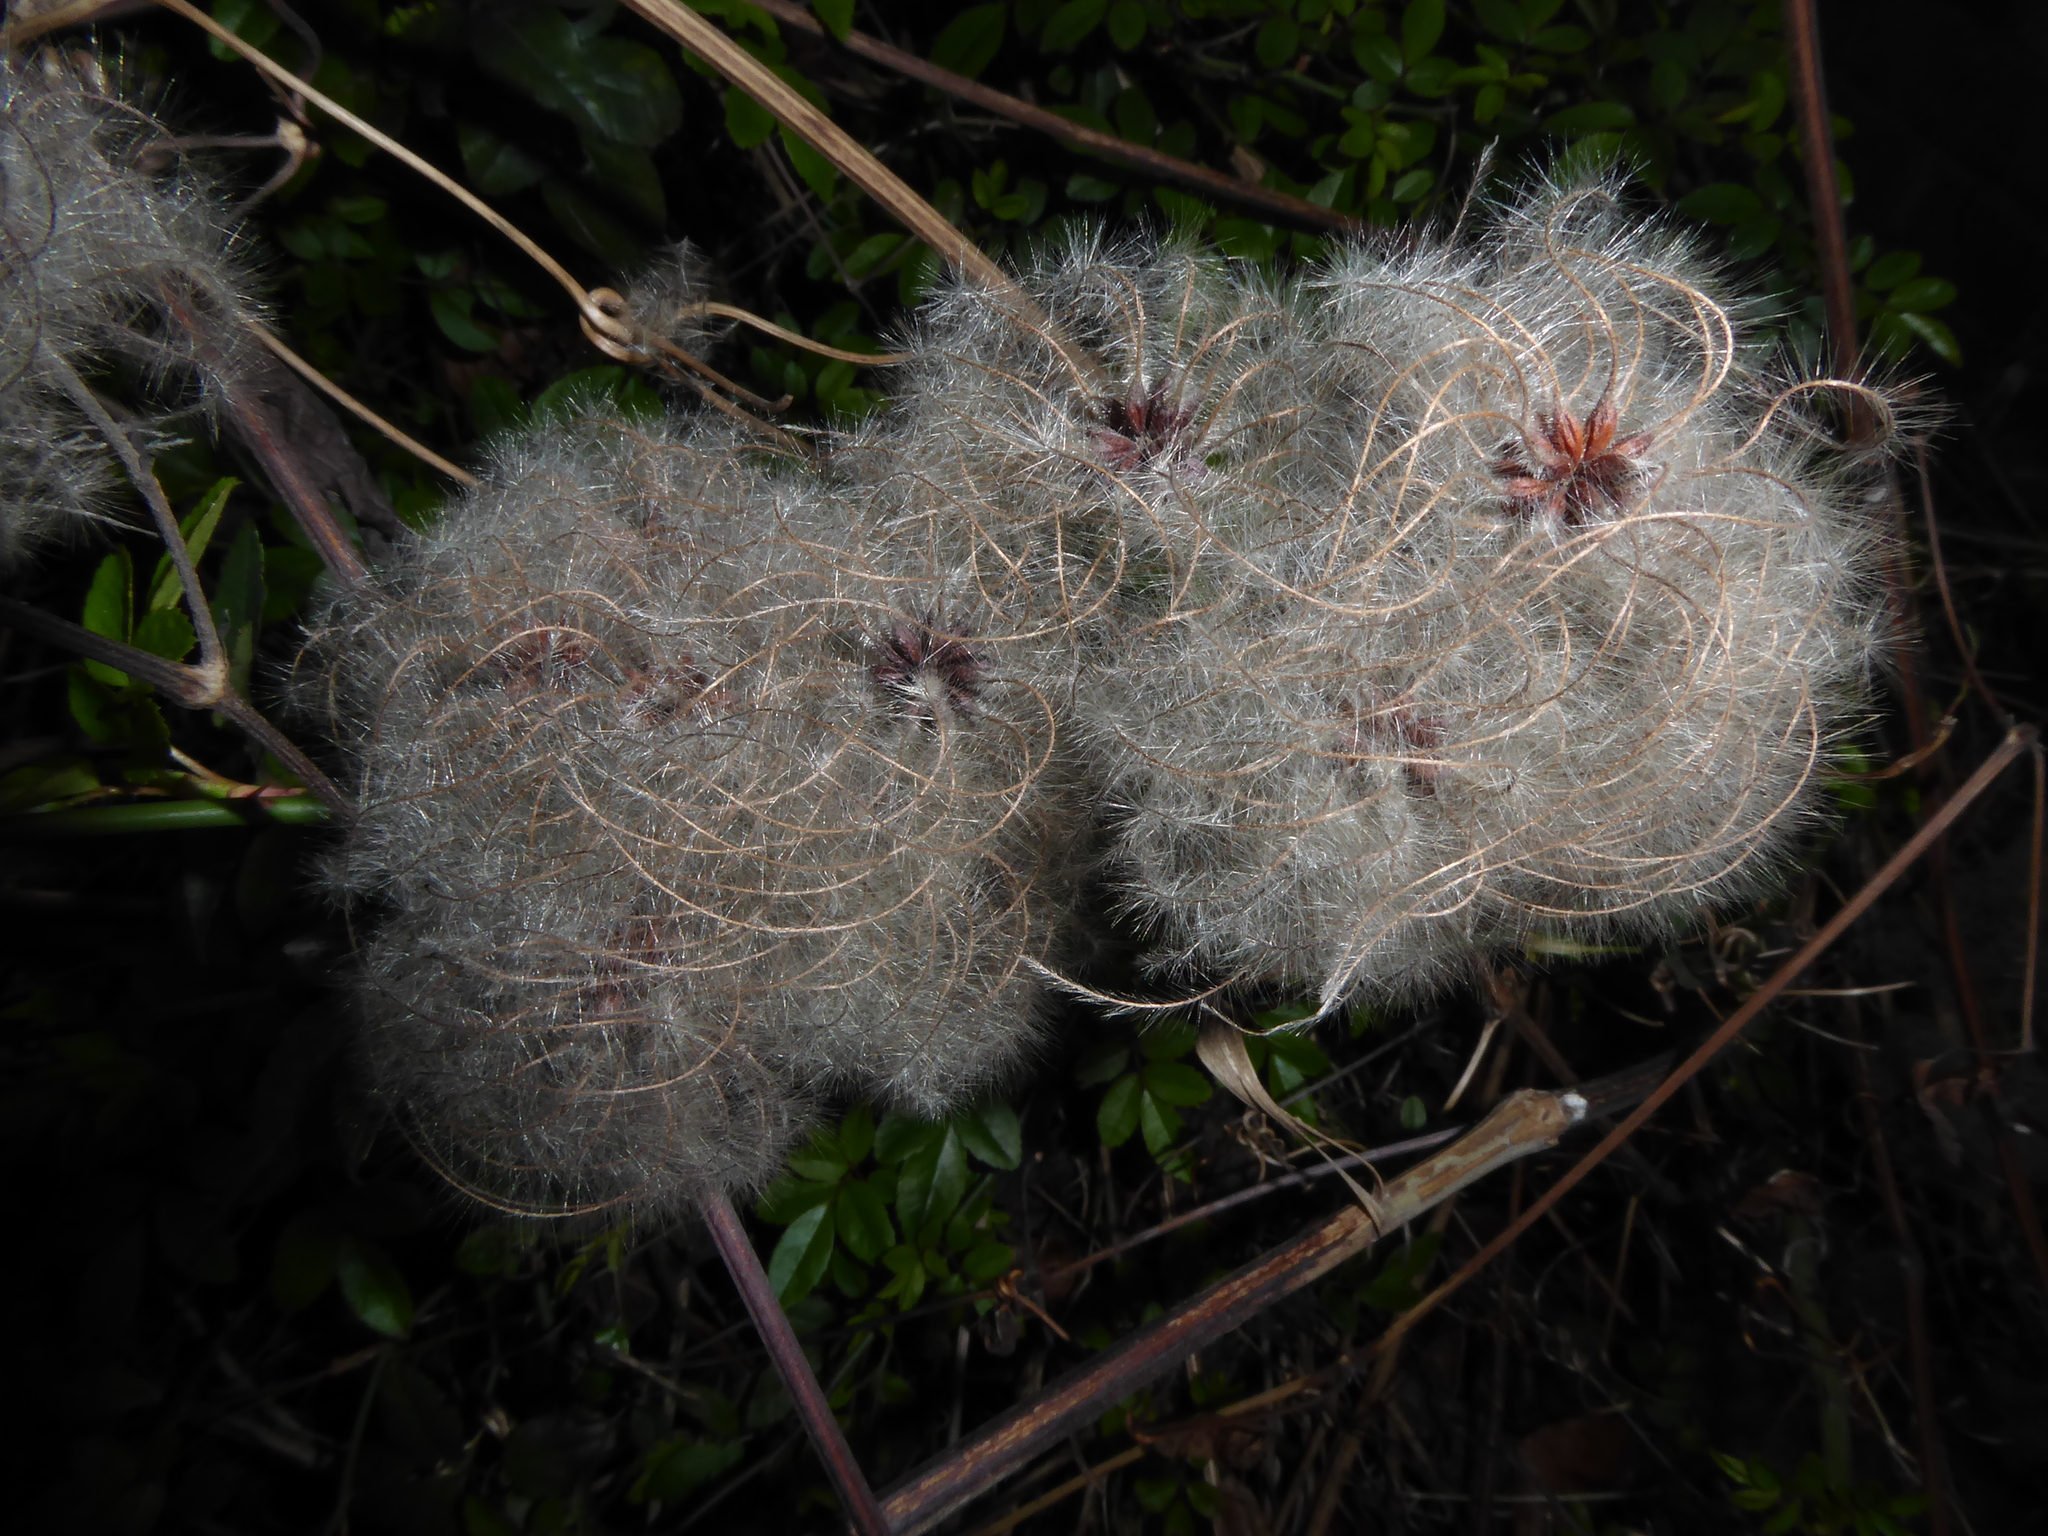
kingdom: Plantae
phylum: Tracheophyta
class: Magnoliopsida
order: Ranunculales
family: Ranunculaceae
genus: Clematis
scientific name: Clematis vitalba
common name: Evergreen clematis
